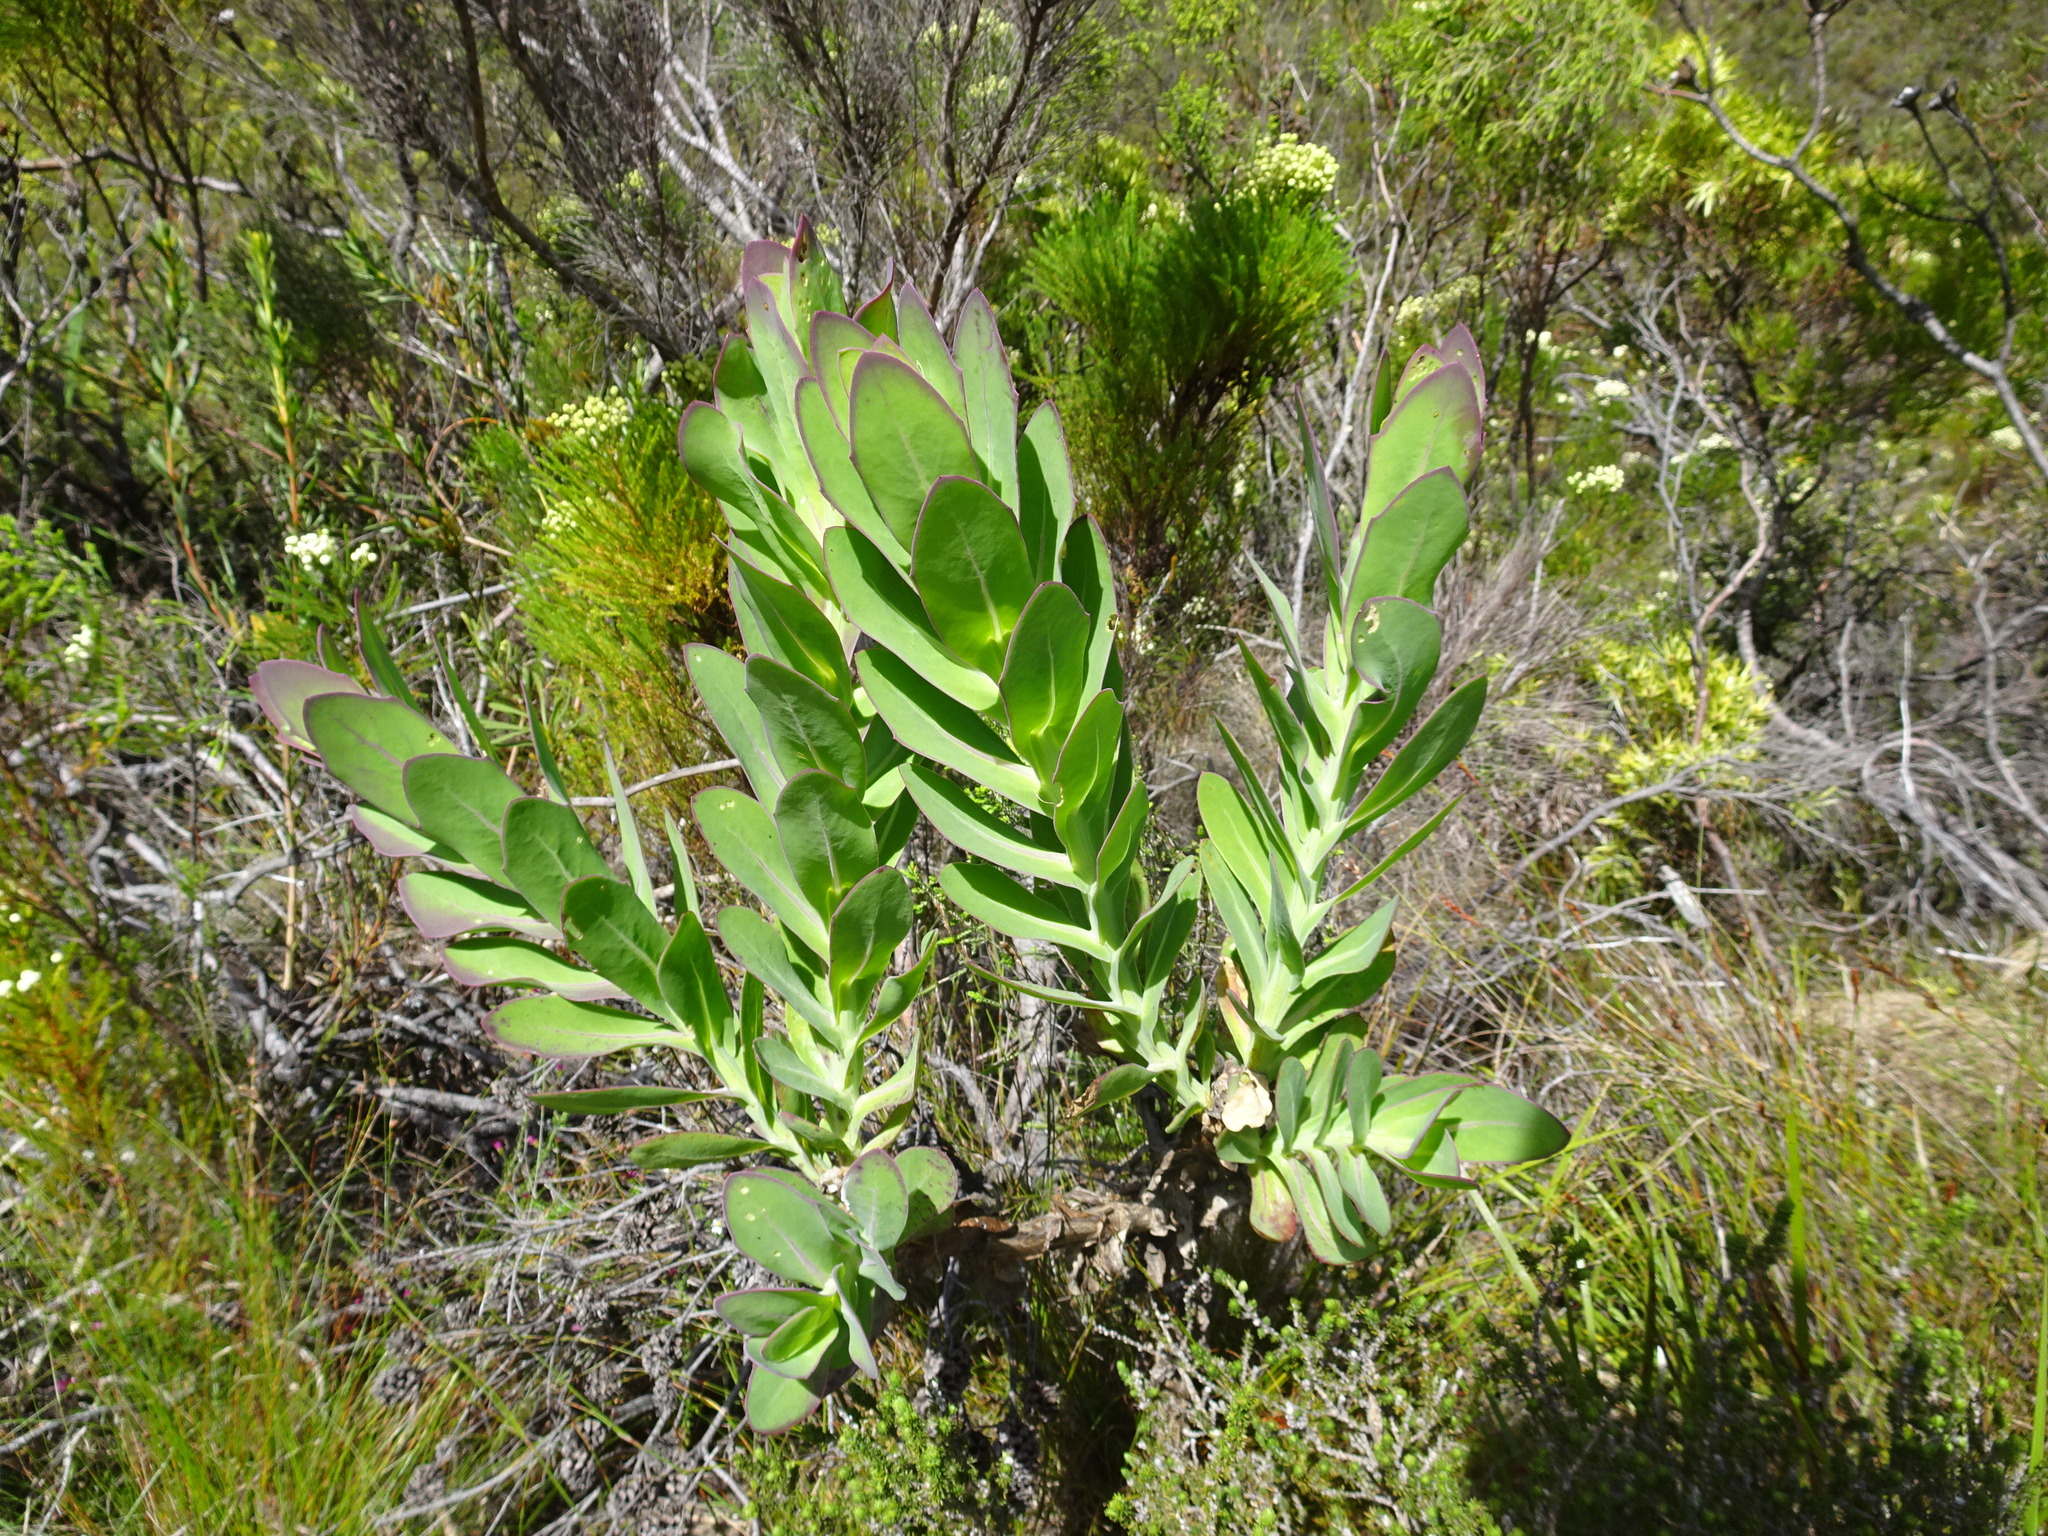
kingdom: Plantae
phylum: Tracheophyta
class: Magnoliopsida
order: Asterales
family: Asteraceae
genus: Othonna
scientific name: Othonna quinquedentata
